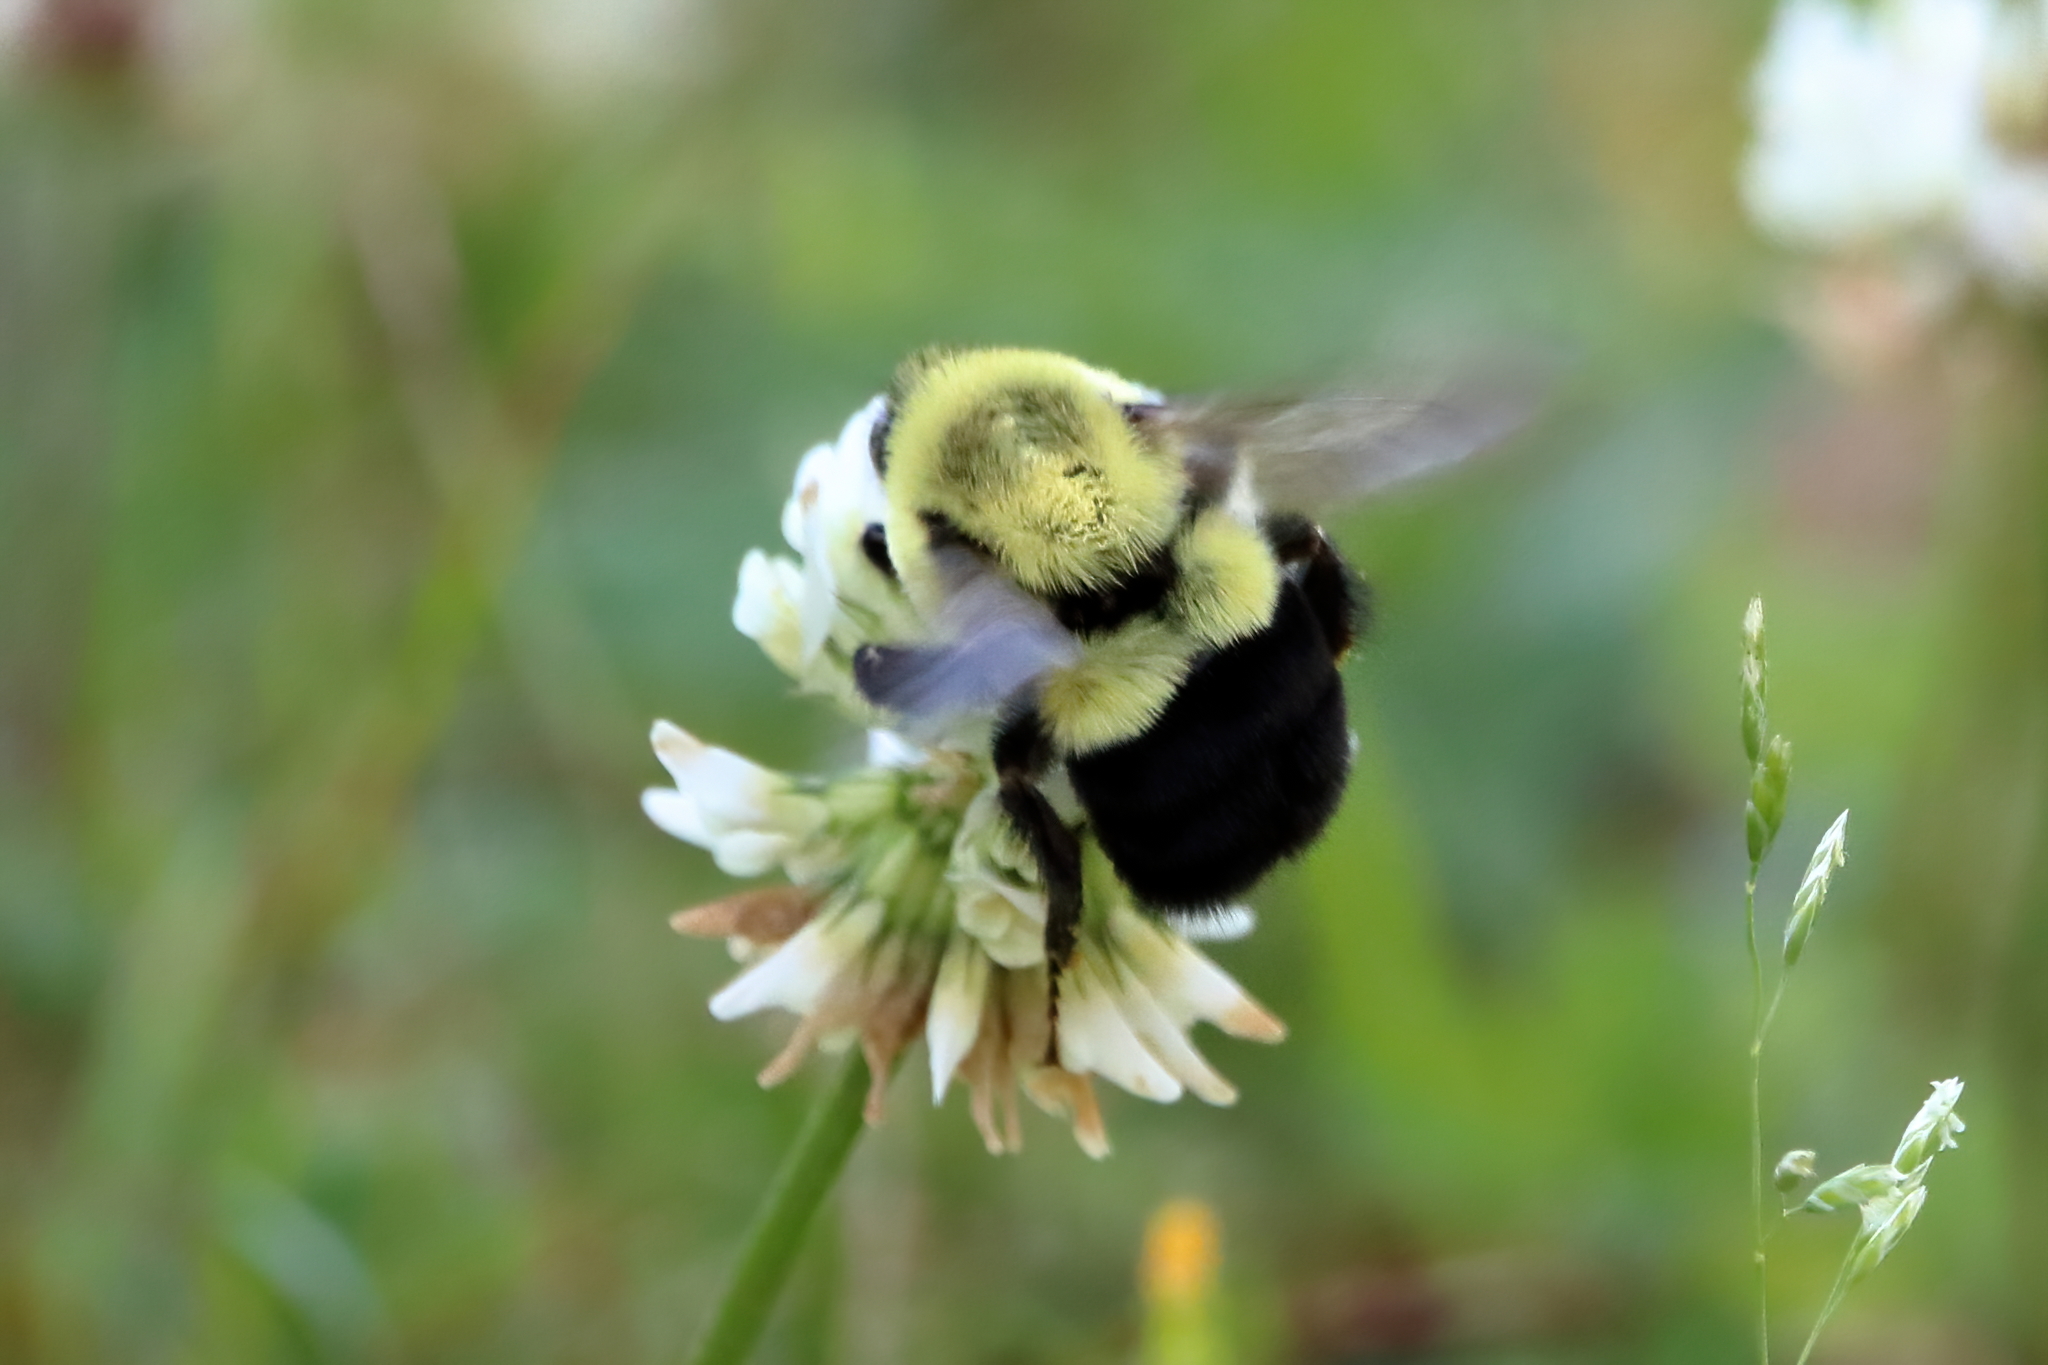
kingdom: Animalia
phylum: Arthropoda
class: Insecta
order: Hymenoptera
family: Apidae
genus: Bombus
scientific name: Bombus impatiens
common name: Common eastern bumble bee
